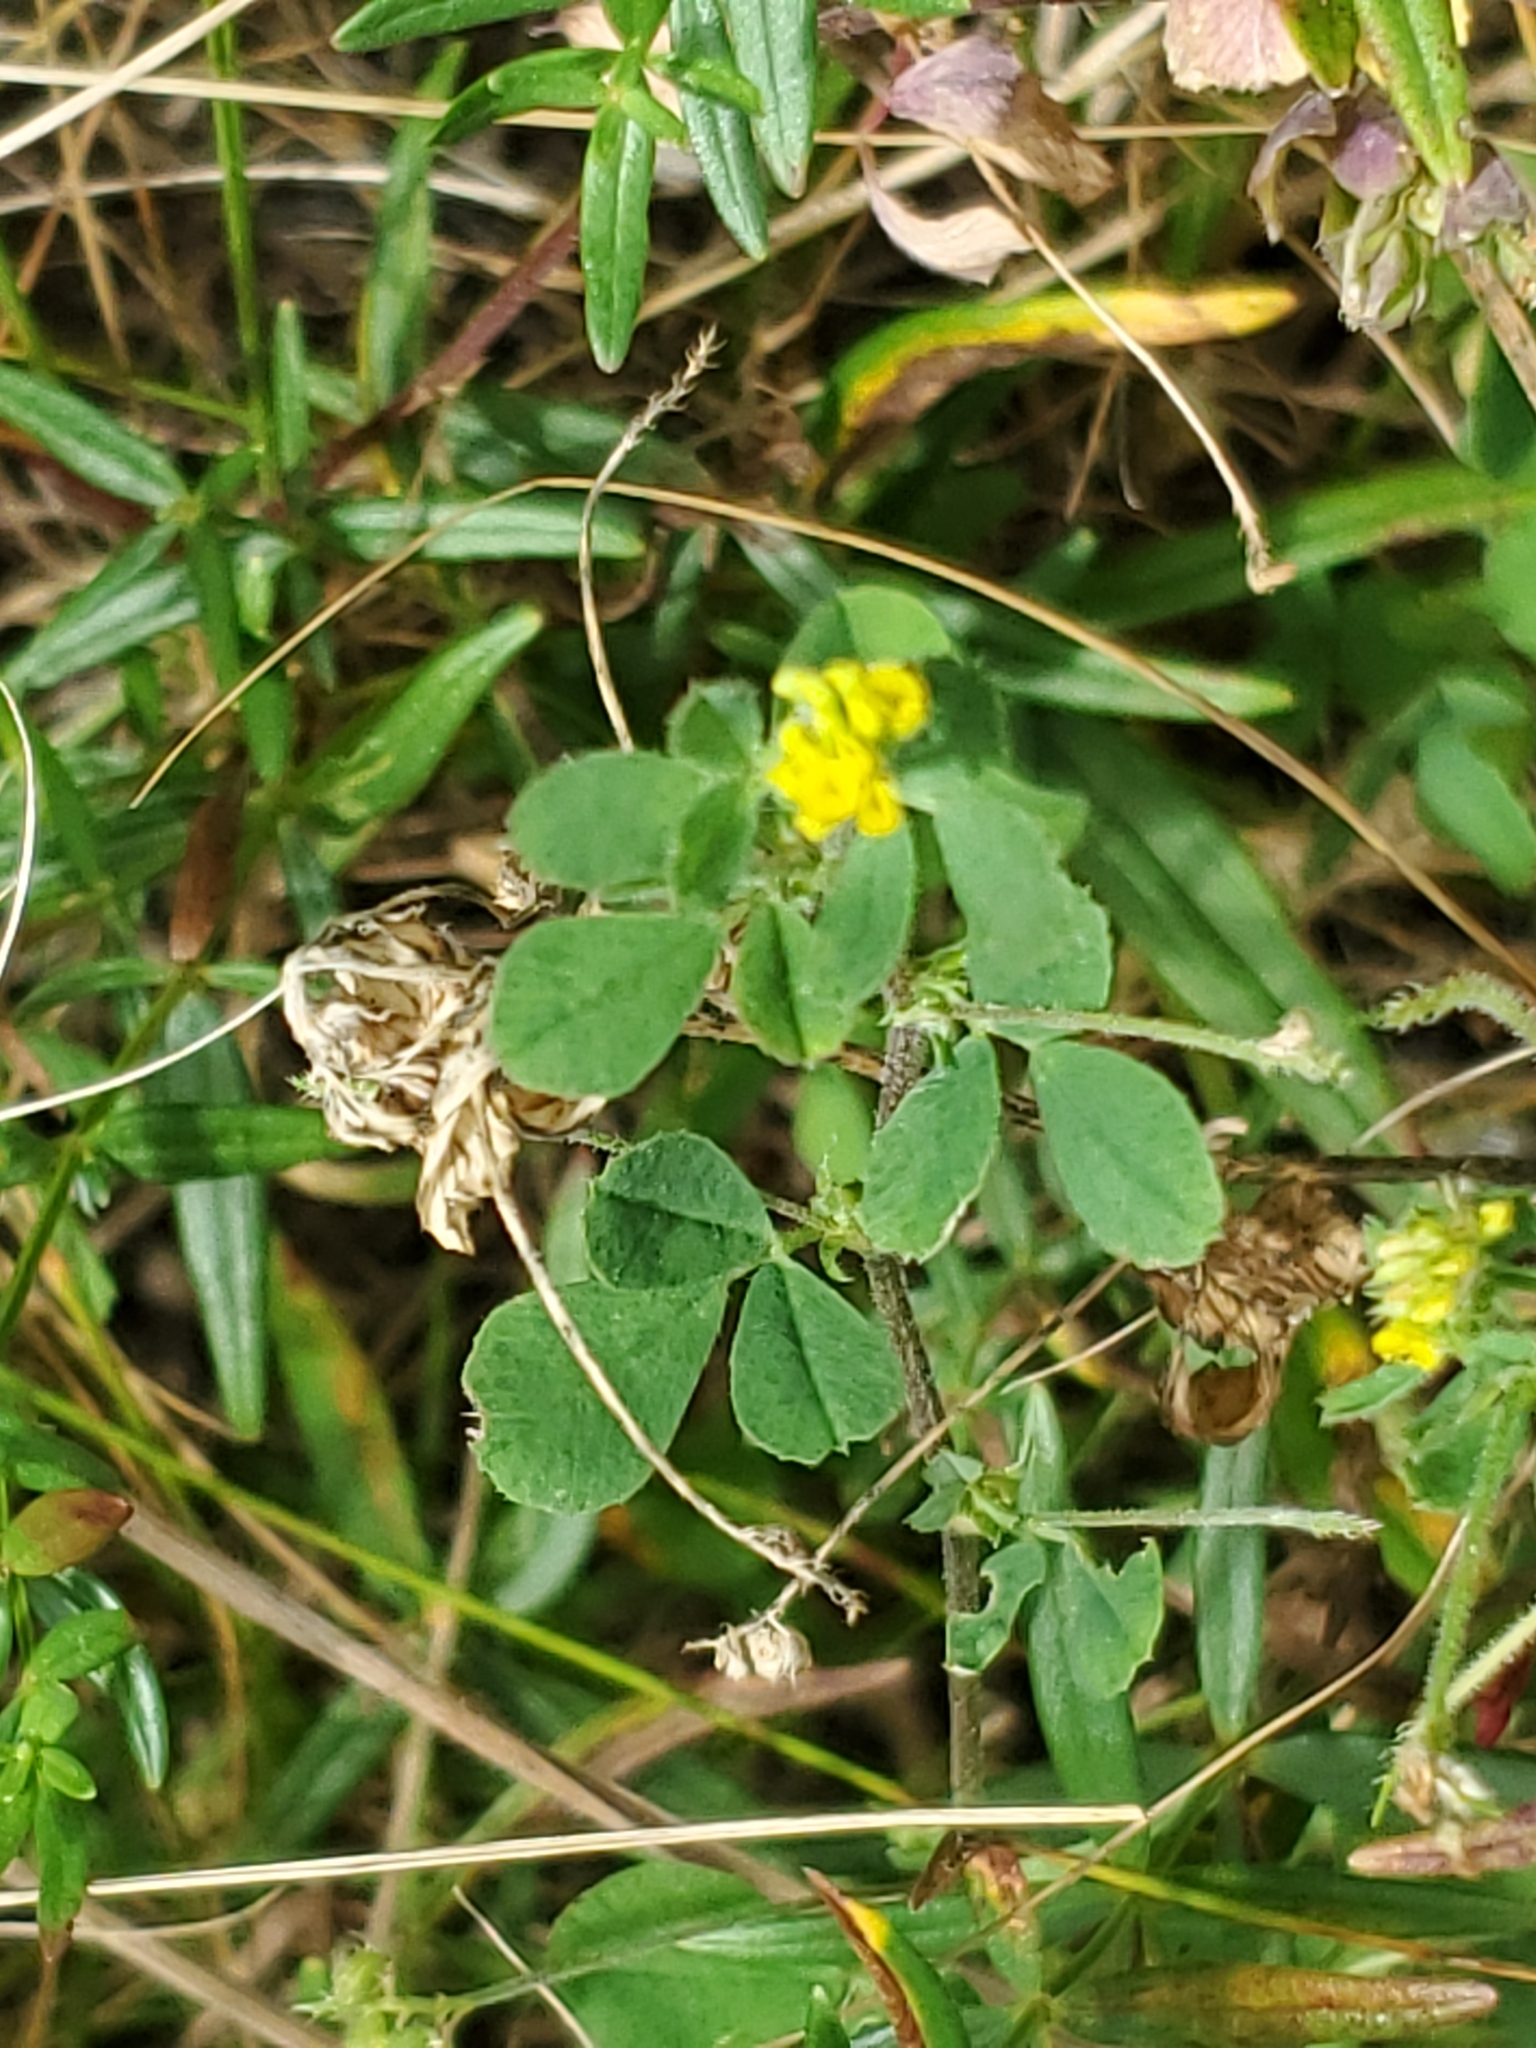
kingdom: Plantae
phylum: Tracheophyta
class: Magnoliopsida
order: Fabales
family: Fabaceae
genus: Medicago
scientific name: Medicago lupulina
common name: Black medick
